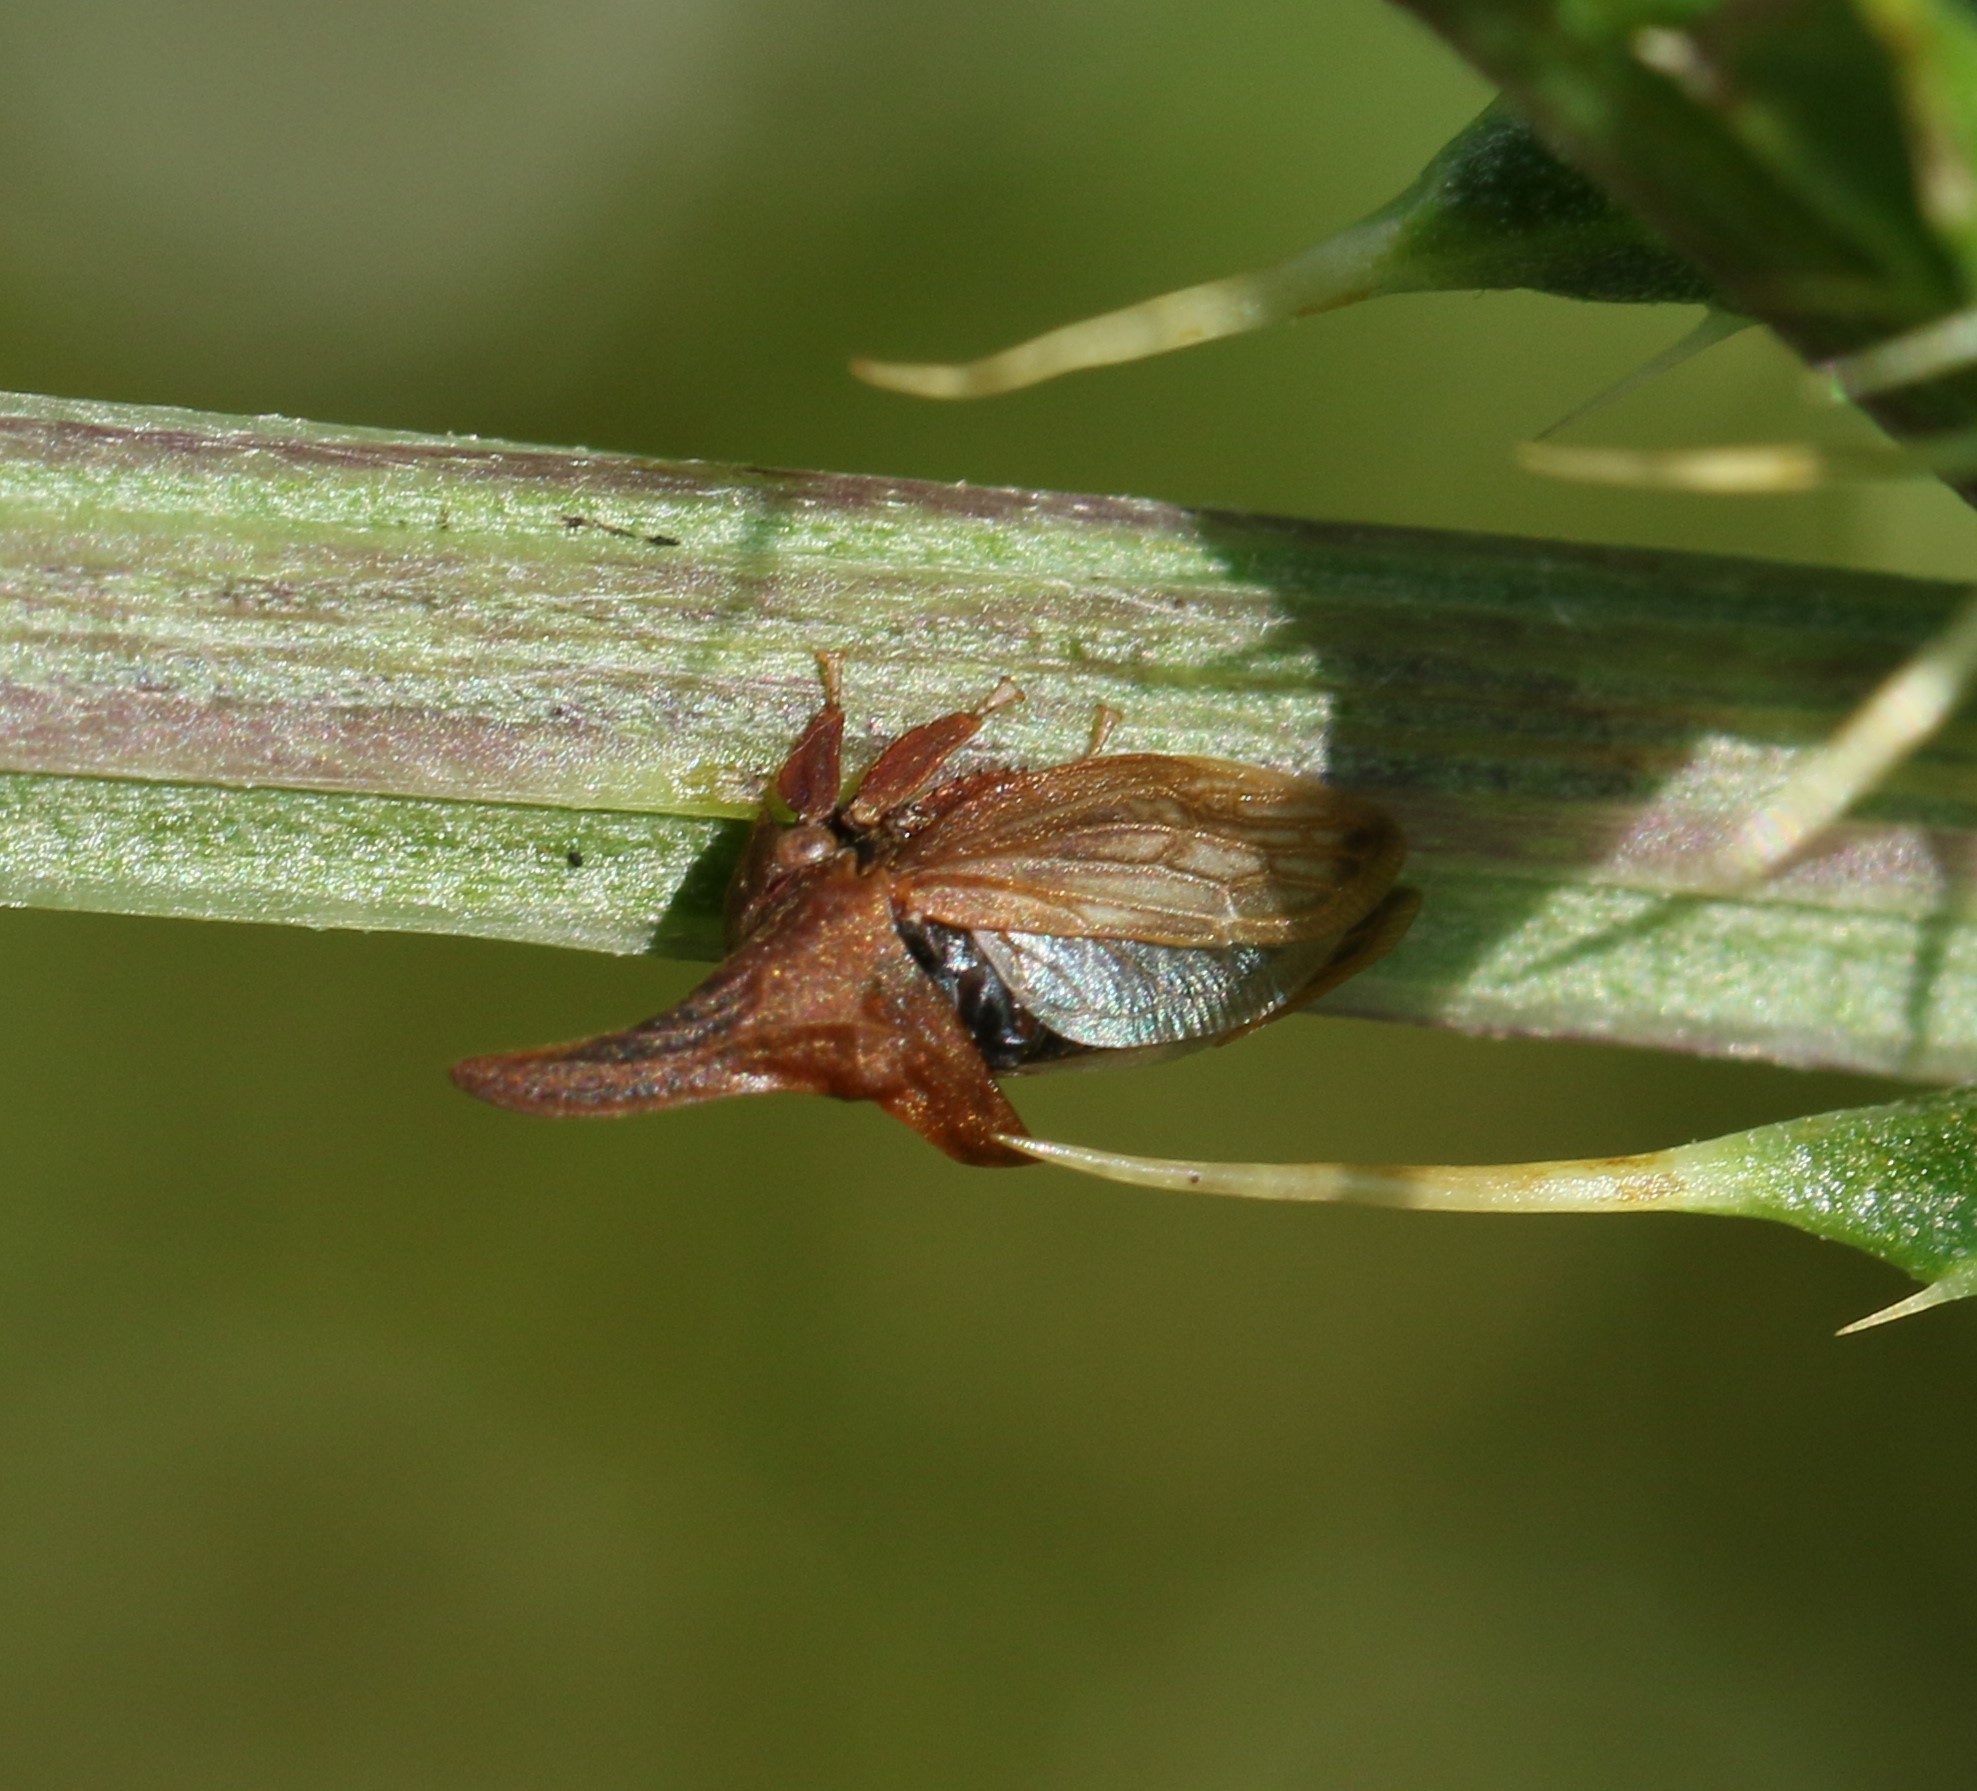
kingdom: Animalia
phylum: Arthropoda
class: Insecta
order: Hemiptera
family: Membracidae
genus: Enchenopa
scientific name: Enchenopa latipes
